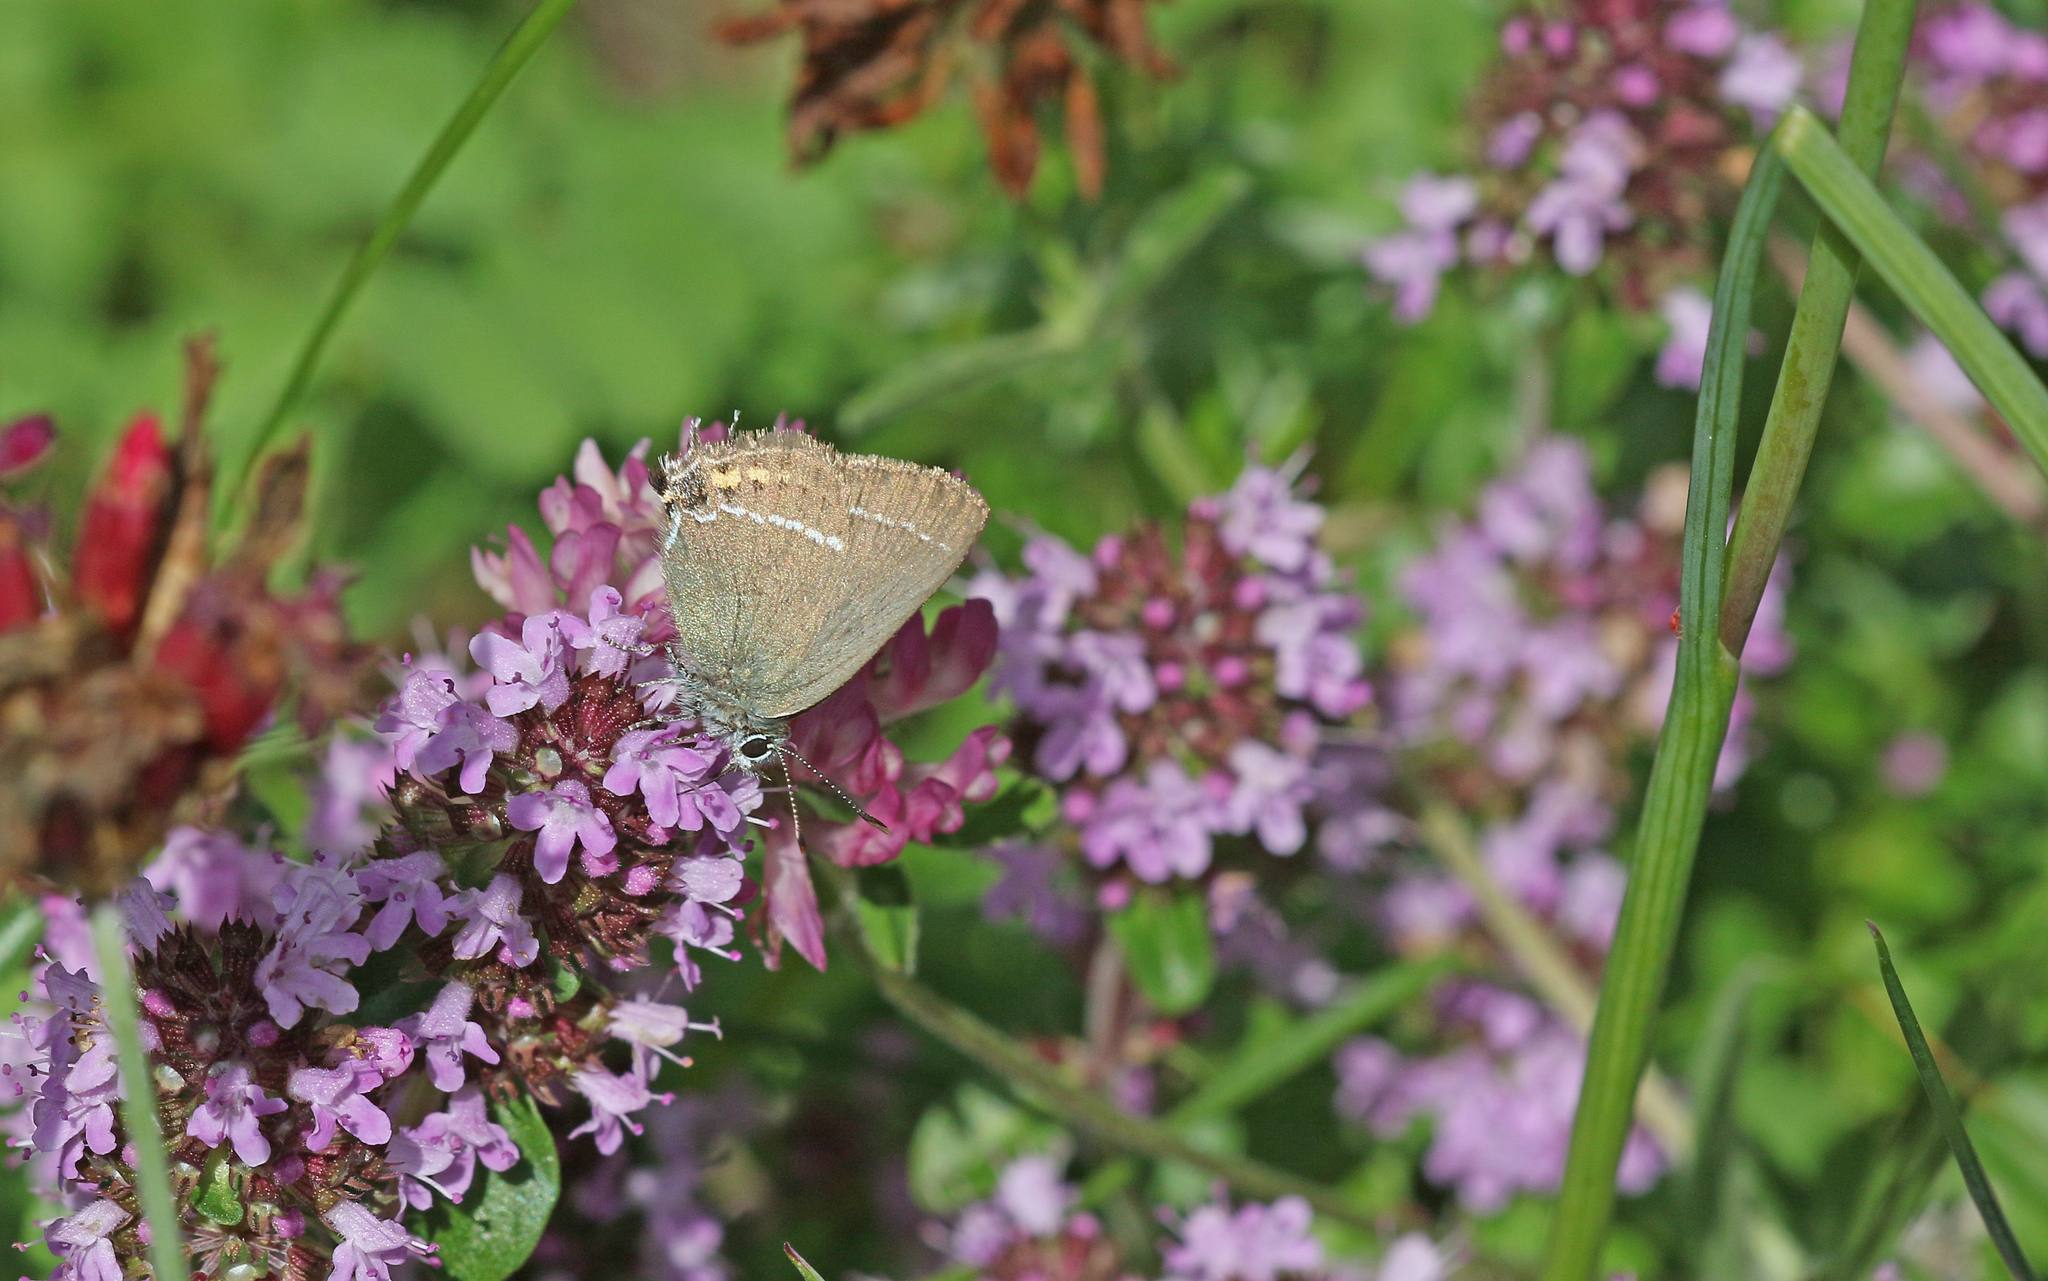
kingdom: Animalia
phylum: Arthropoda
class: Insecta
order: Lepidoptera
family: Lycaenidae
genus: Tuttiola
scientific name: Tuttiola spini
